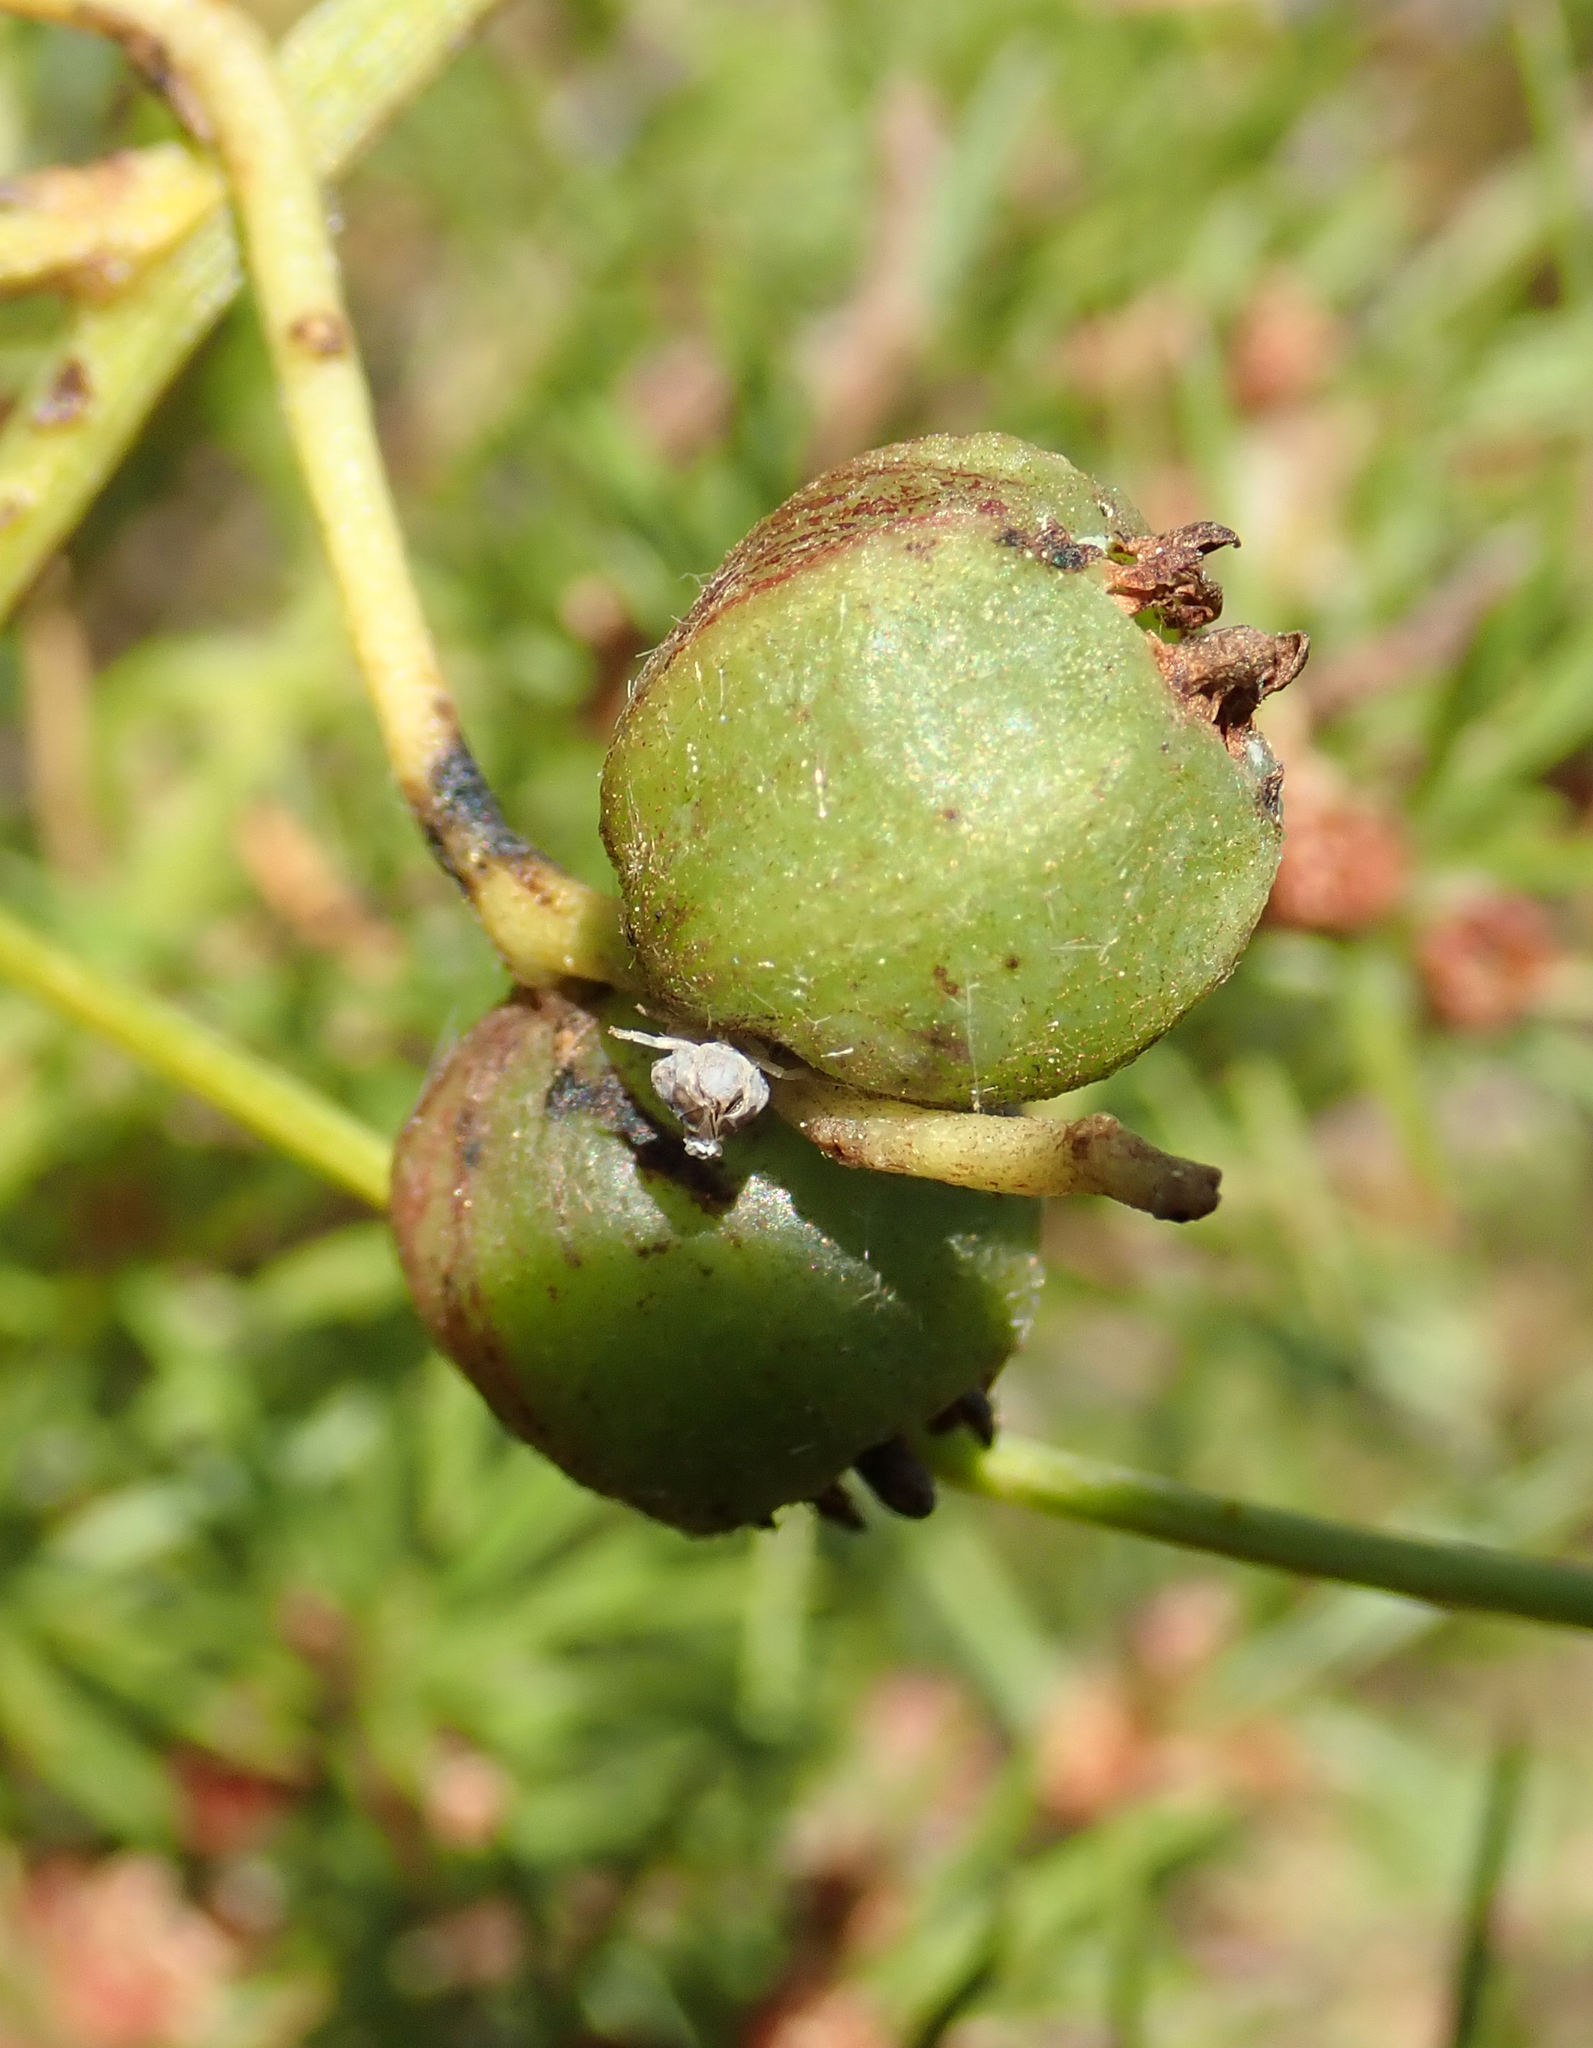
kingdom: Plantae
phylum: Tracheophyta
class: Magnoliopsida
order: Laurales
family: Lauraceae
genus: Cassytha
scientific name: Cassytha paniculata
